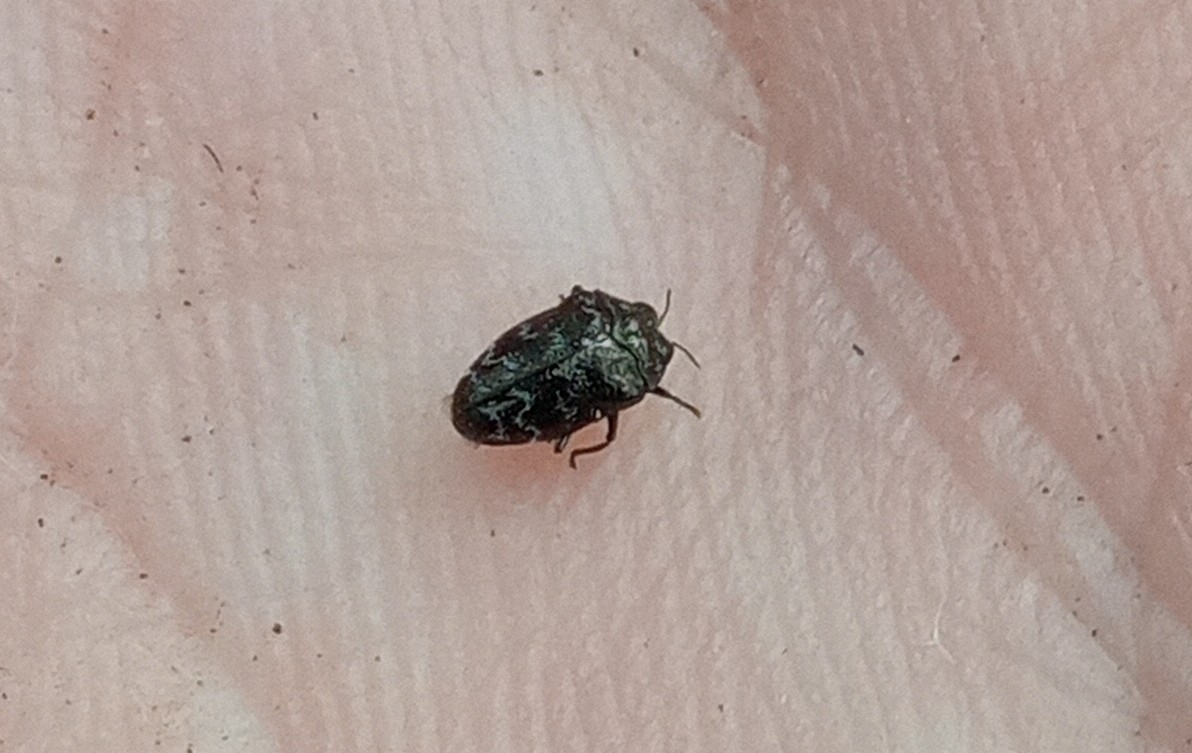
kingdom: Animalia
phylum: Arthropoda
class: Insecta
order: Coleoptera
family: Buprestidae
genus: Trachys
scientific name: Trachys minutus
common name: Metallic wood-boring beetle
